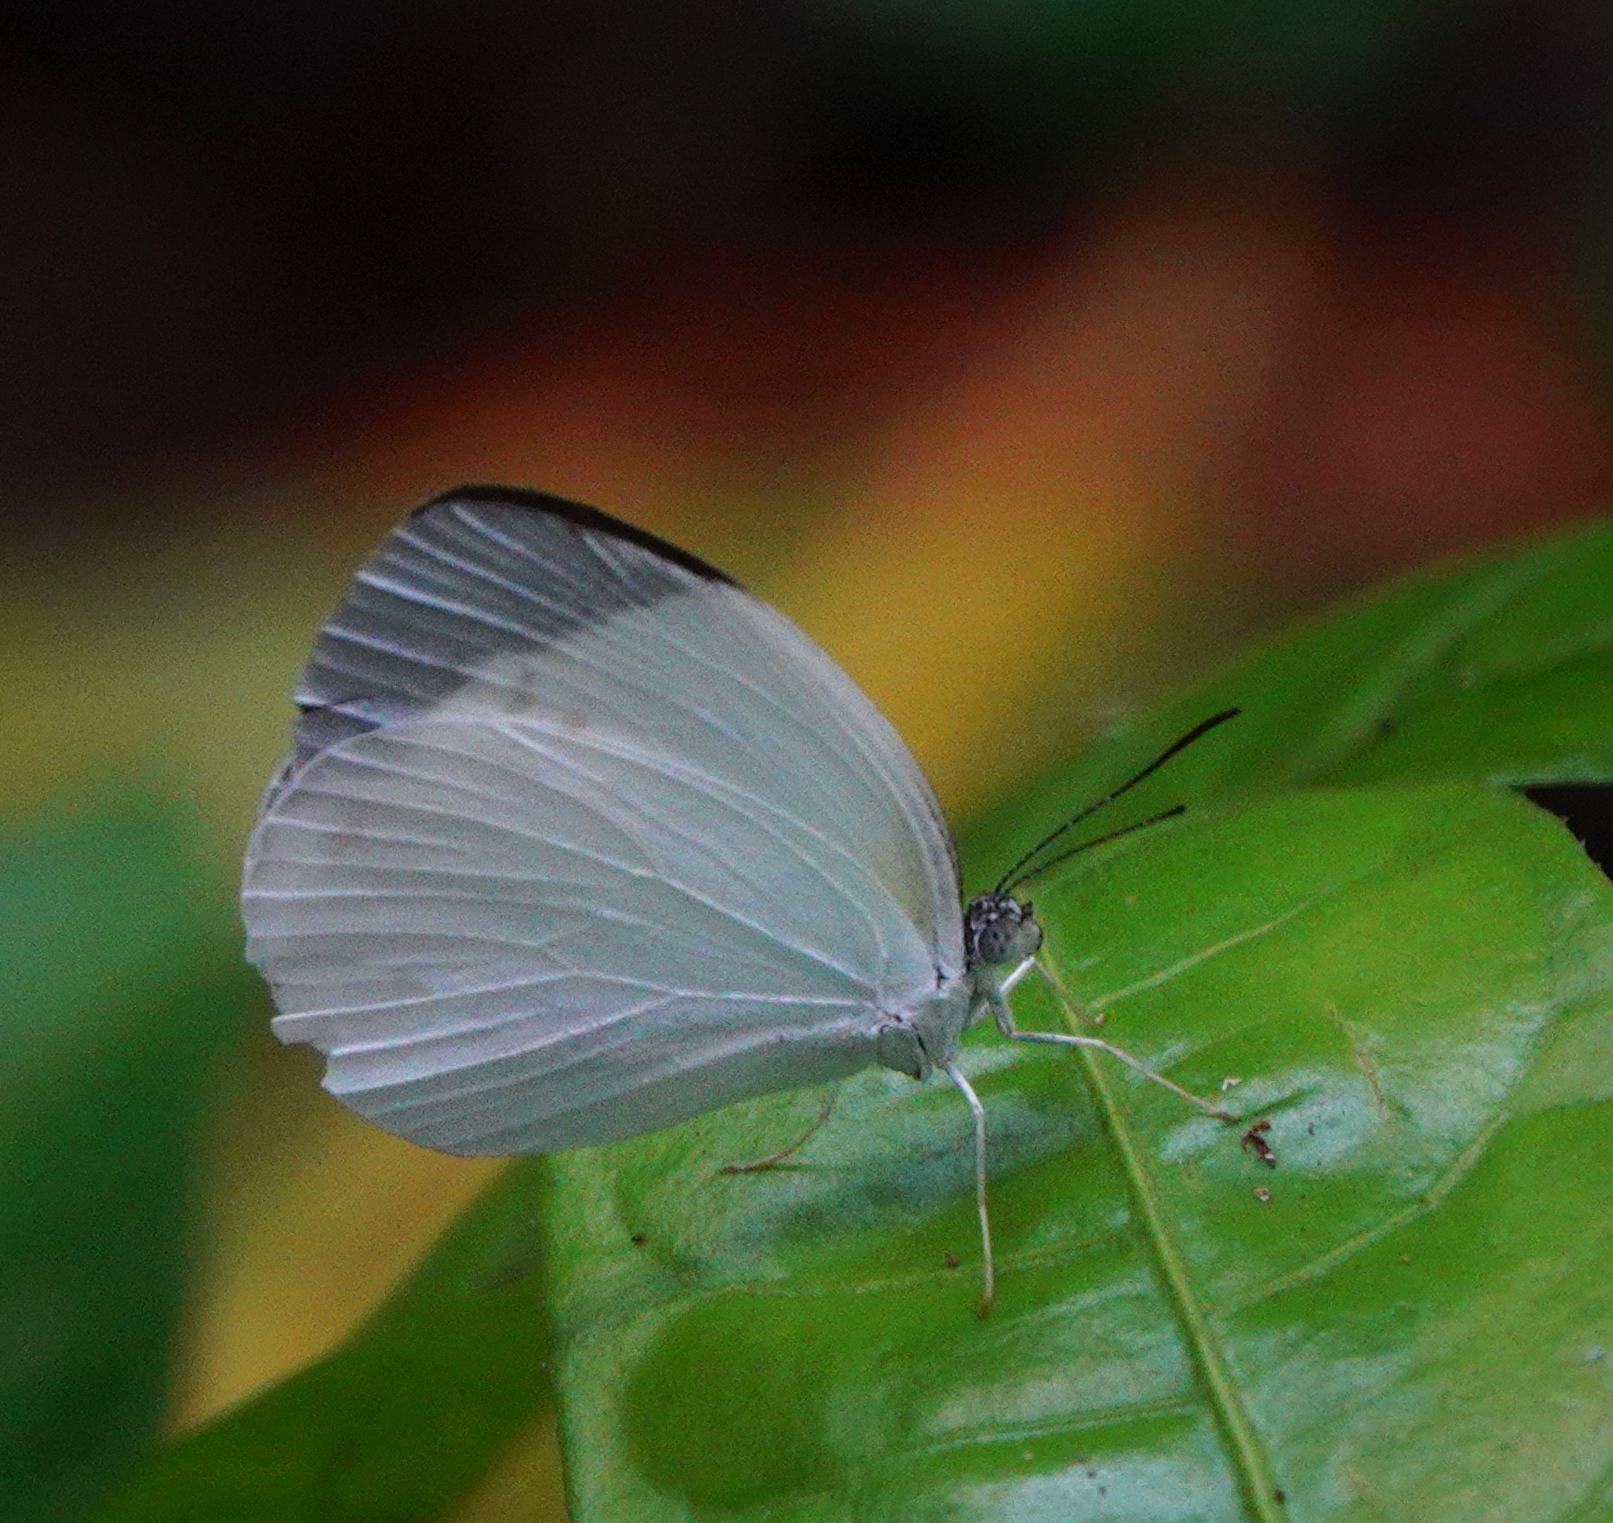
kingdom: Animalia
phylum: Arthropoda
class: Insecta
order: Lepidoptera
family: Pieridae
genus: Abaeis
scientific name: Abaeis albula
